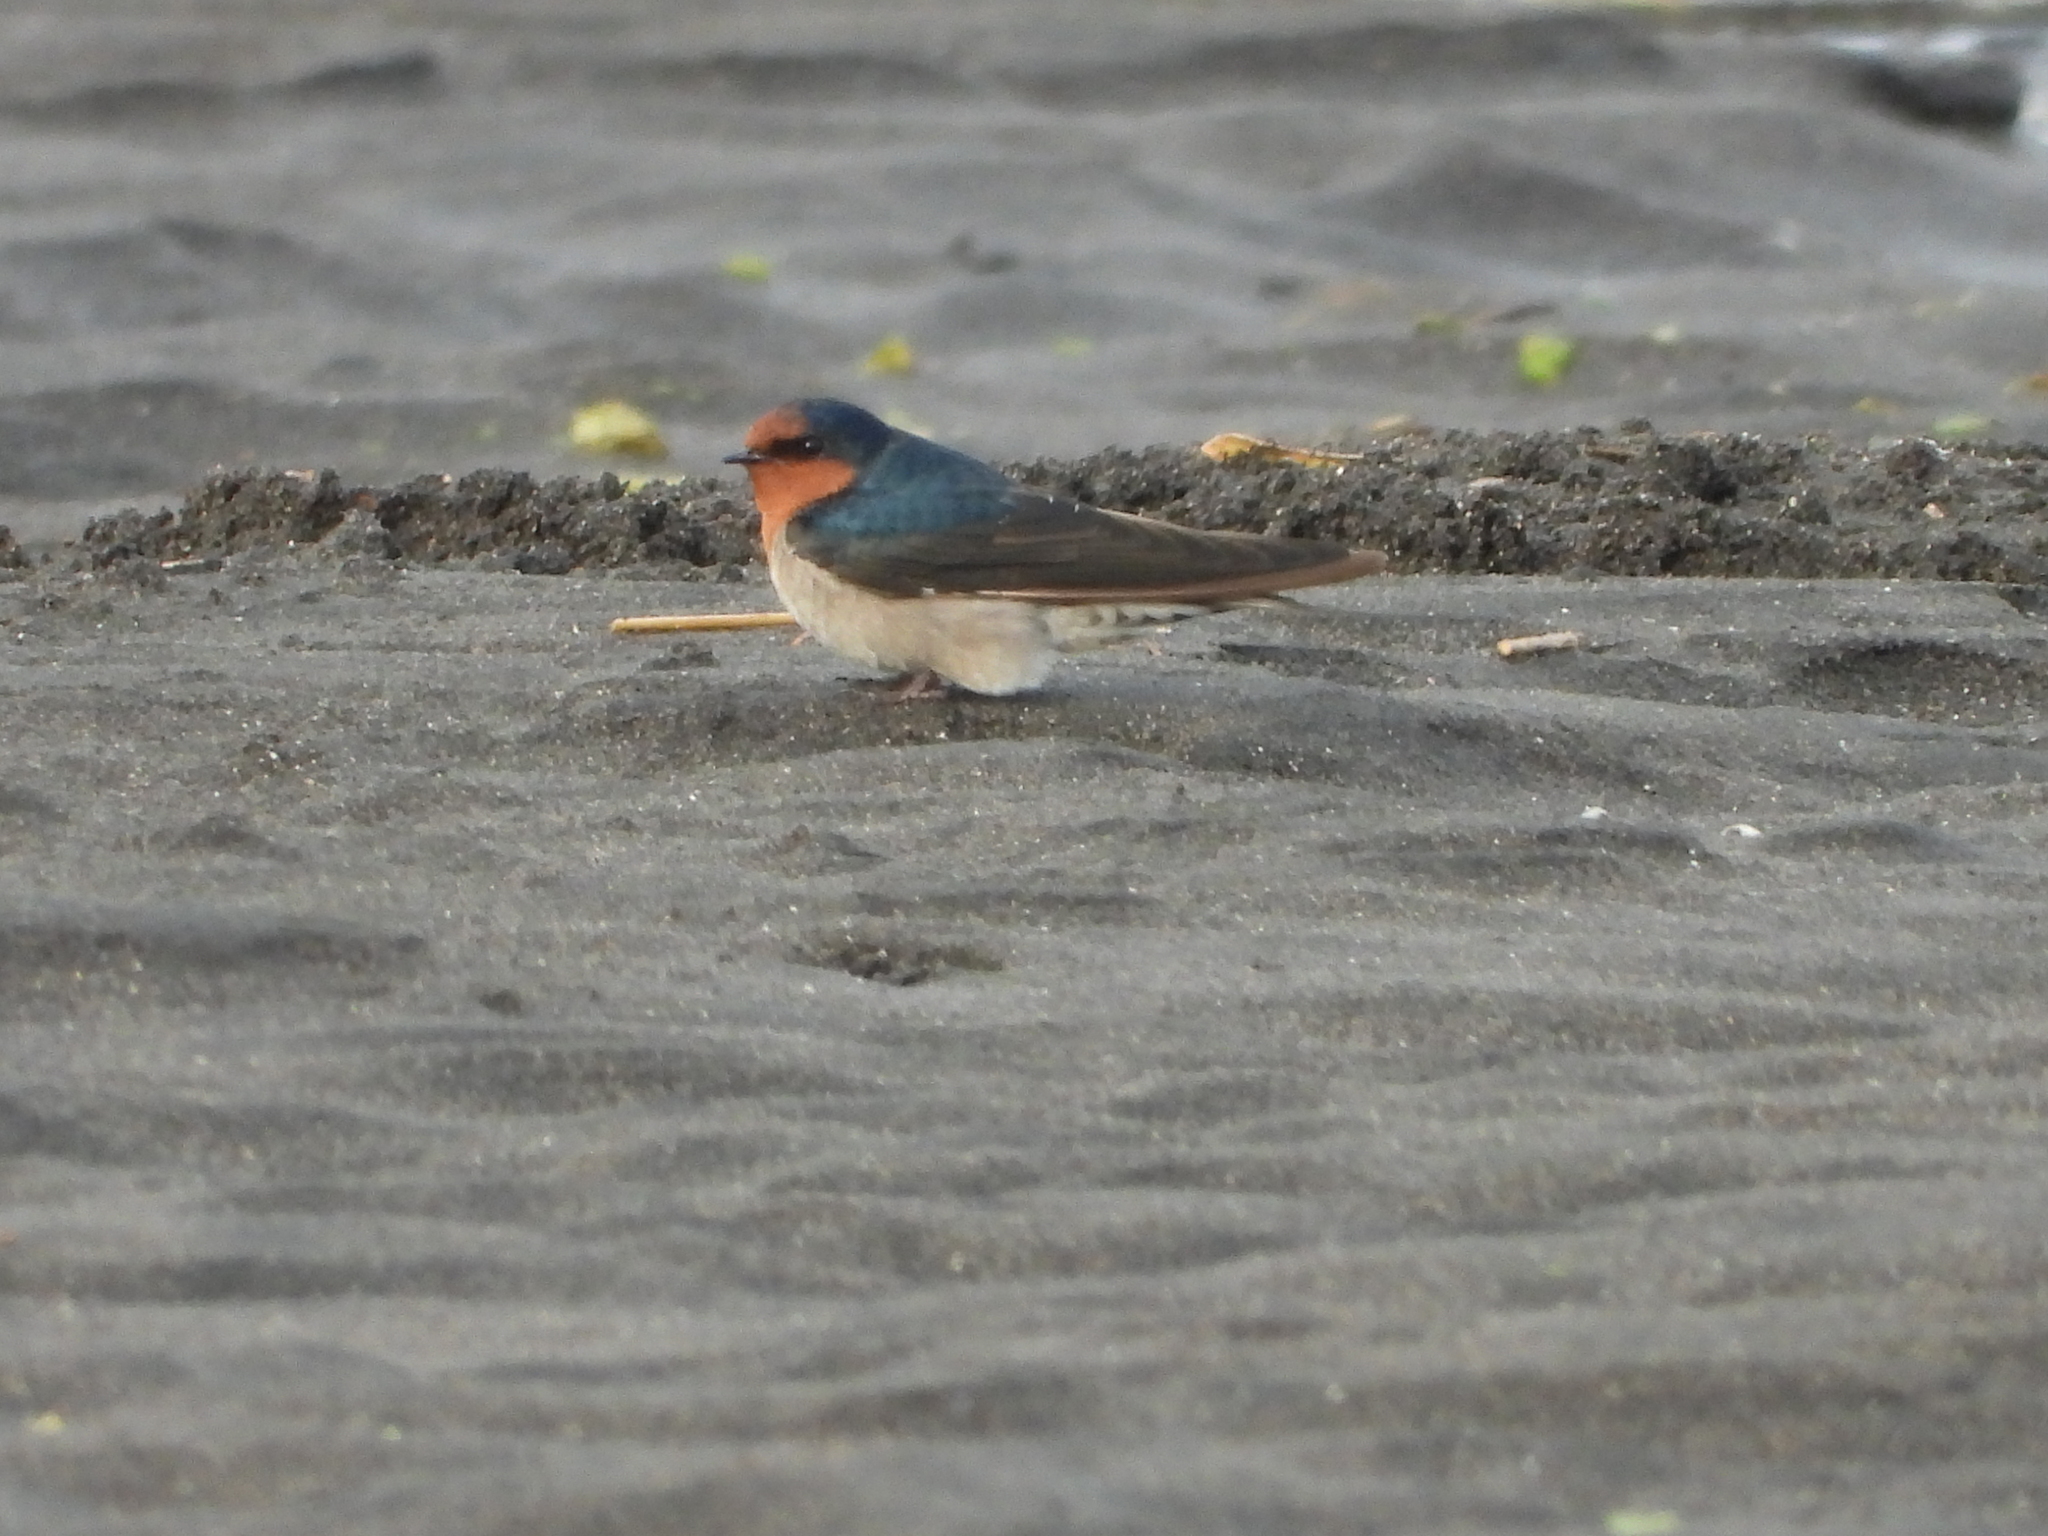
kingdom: Animalia
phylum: Chordata
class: Aves
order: Passeriformes
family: Hirundinidae
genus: Hirundo
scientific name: Hirundo neoxena
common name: Welcome swallow
